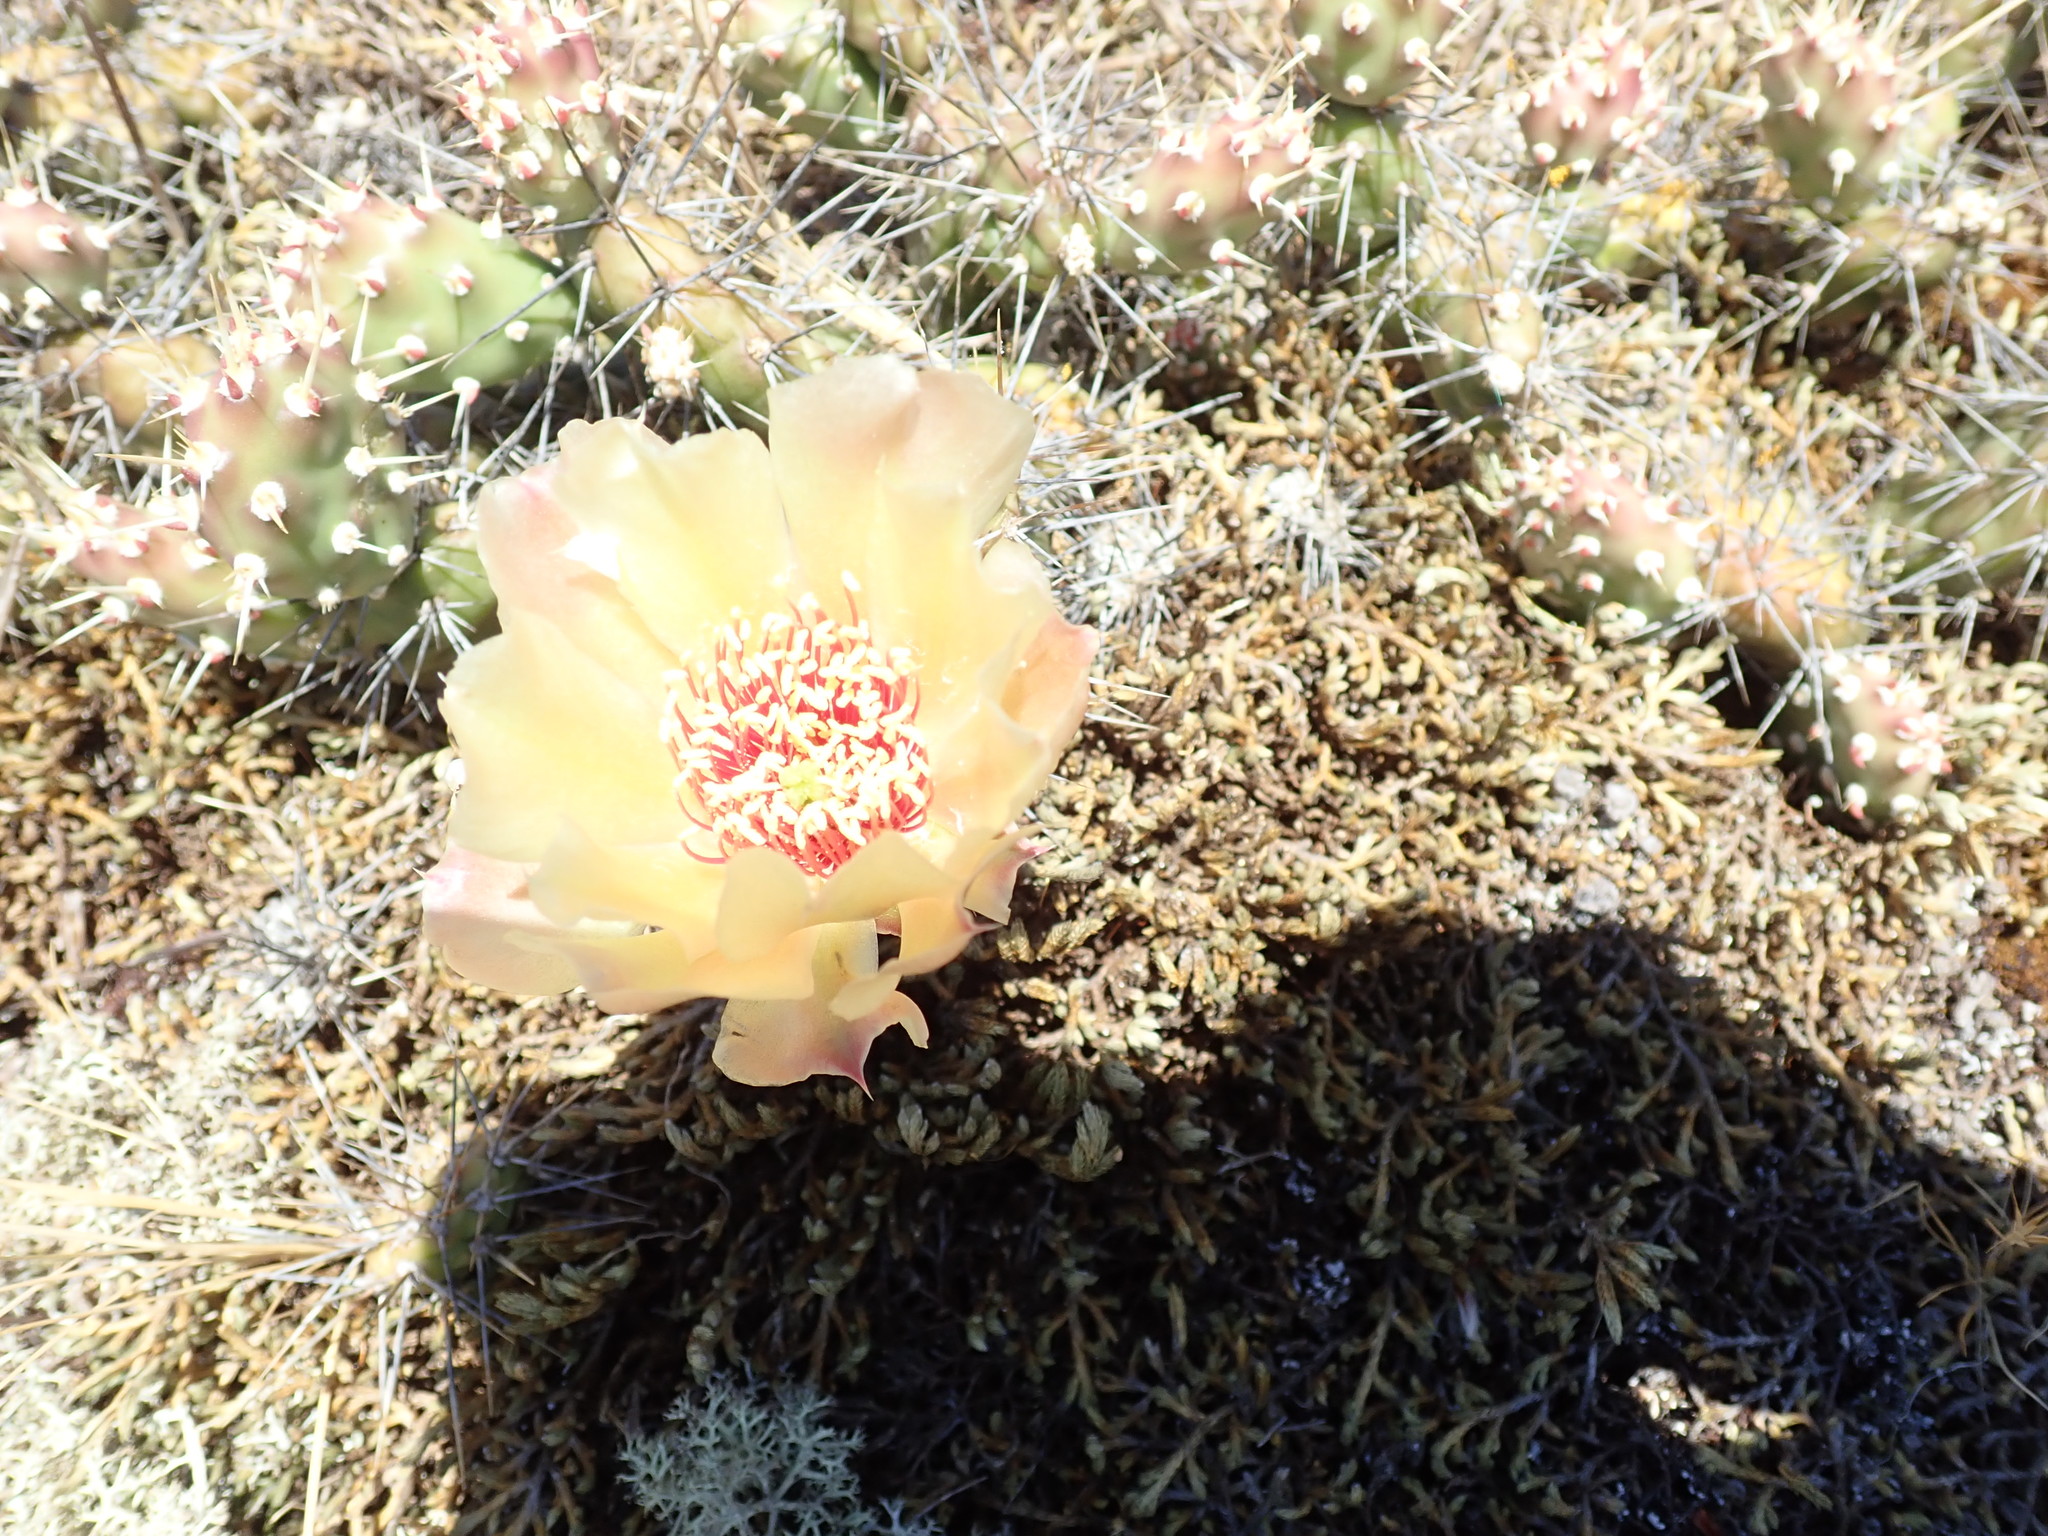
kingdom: Plantae
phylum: Tracheophyta
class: Magnoliopsida
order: Caryophyllales
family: Cactaceae
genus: Opuntia
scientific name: Opuntia fragilis
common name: Brittle cactus
